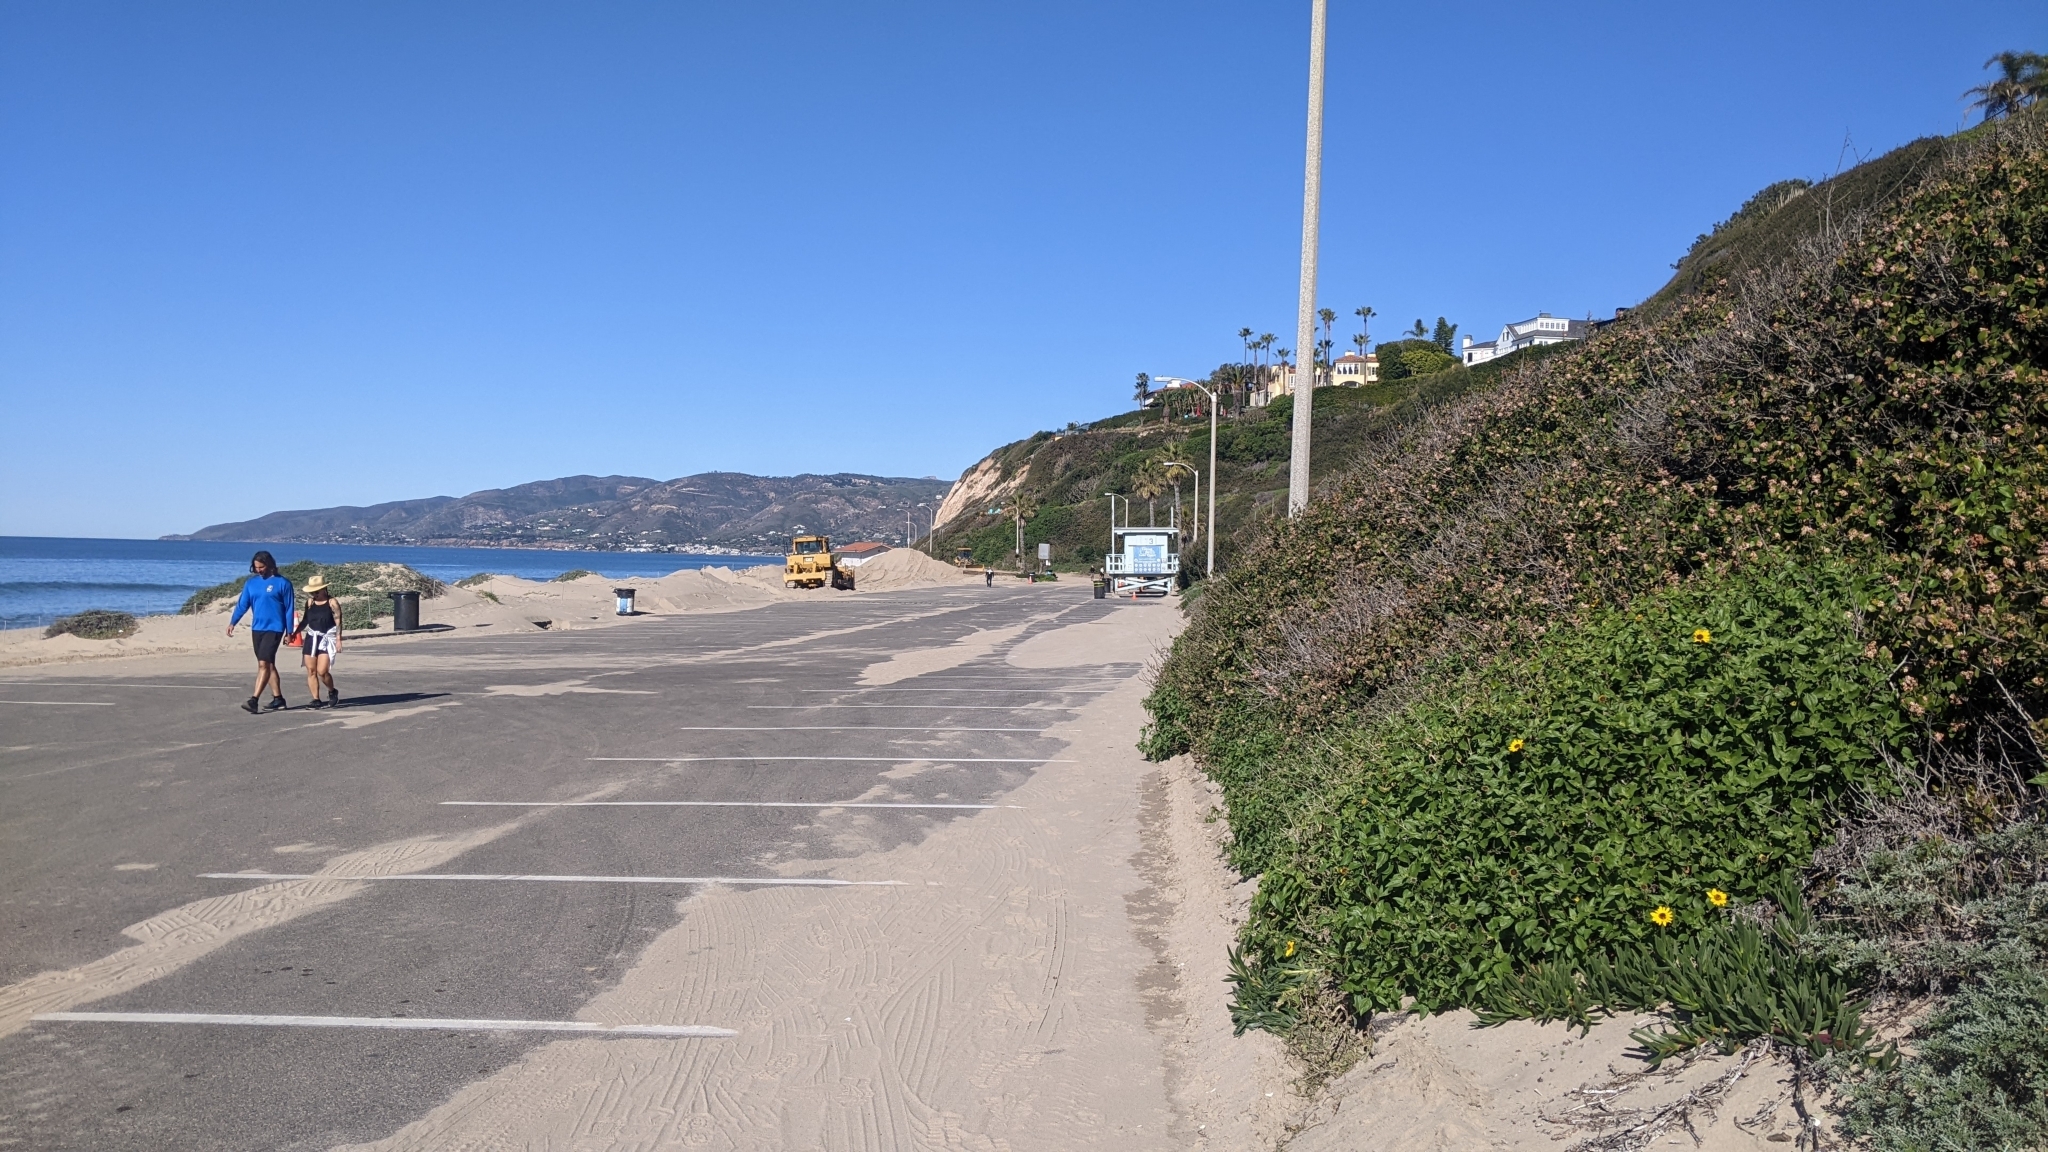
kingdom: Plantae
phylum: Tracheophyta
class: Magnoliopsida
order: Sapindales
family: Anacardiaceae
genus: Rhus
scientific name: Rhus integrifolia
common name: Lemonade sumac
